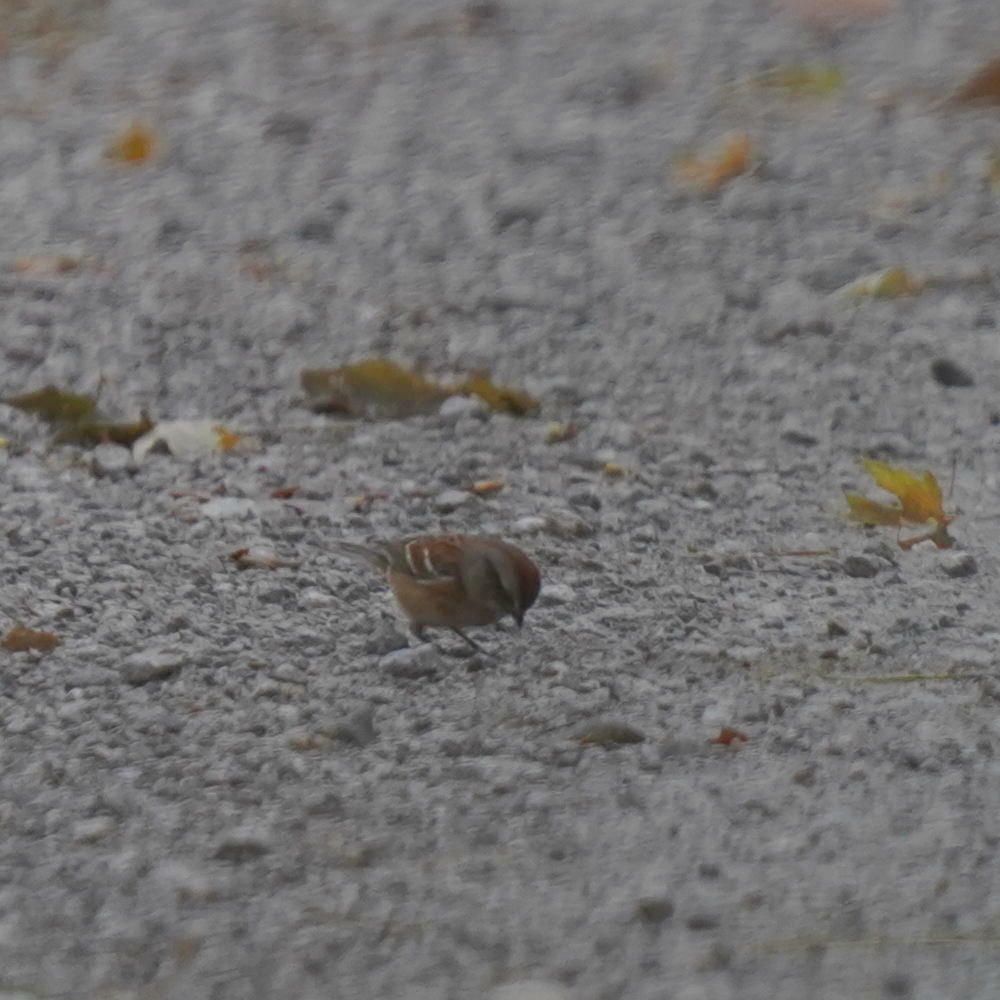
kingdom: Animalia
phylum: Chordata
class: Aves
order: Passeriformes
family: Passerellidae
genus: Spizelloides
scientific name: Spizelloides arborea
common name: American tree sparrow
